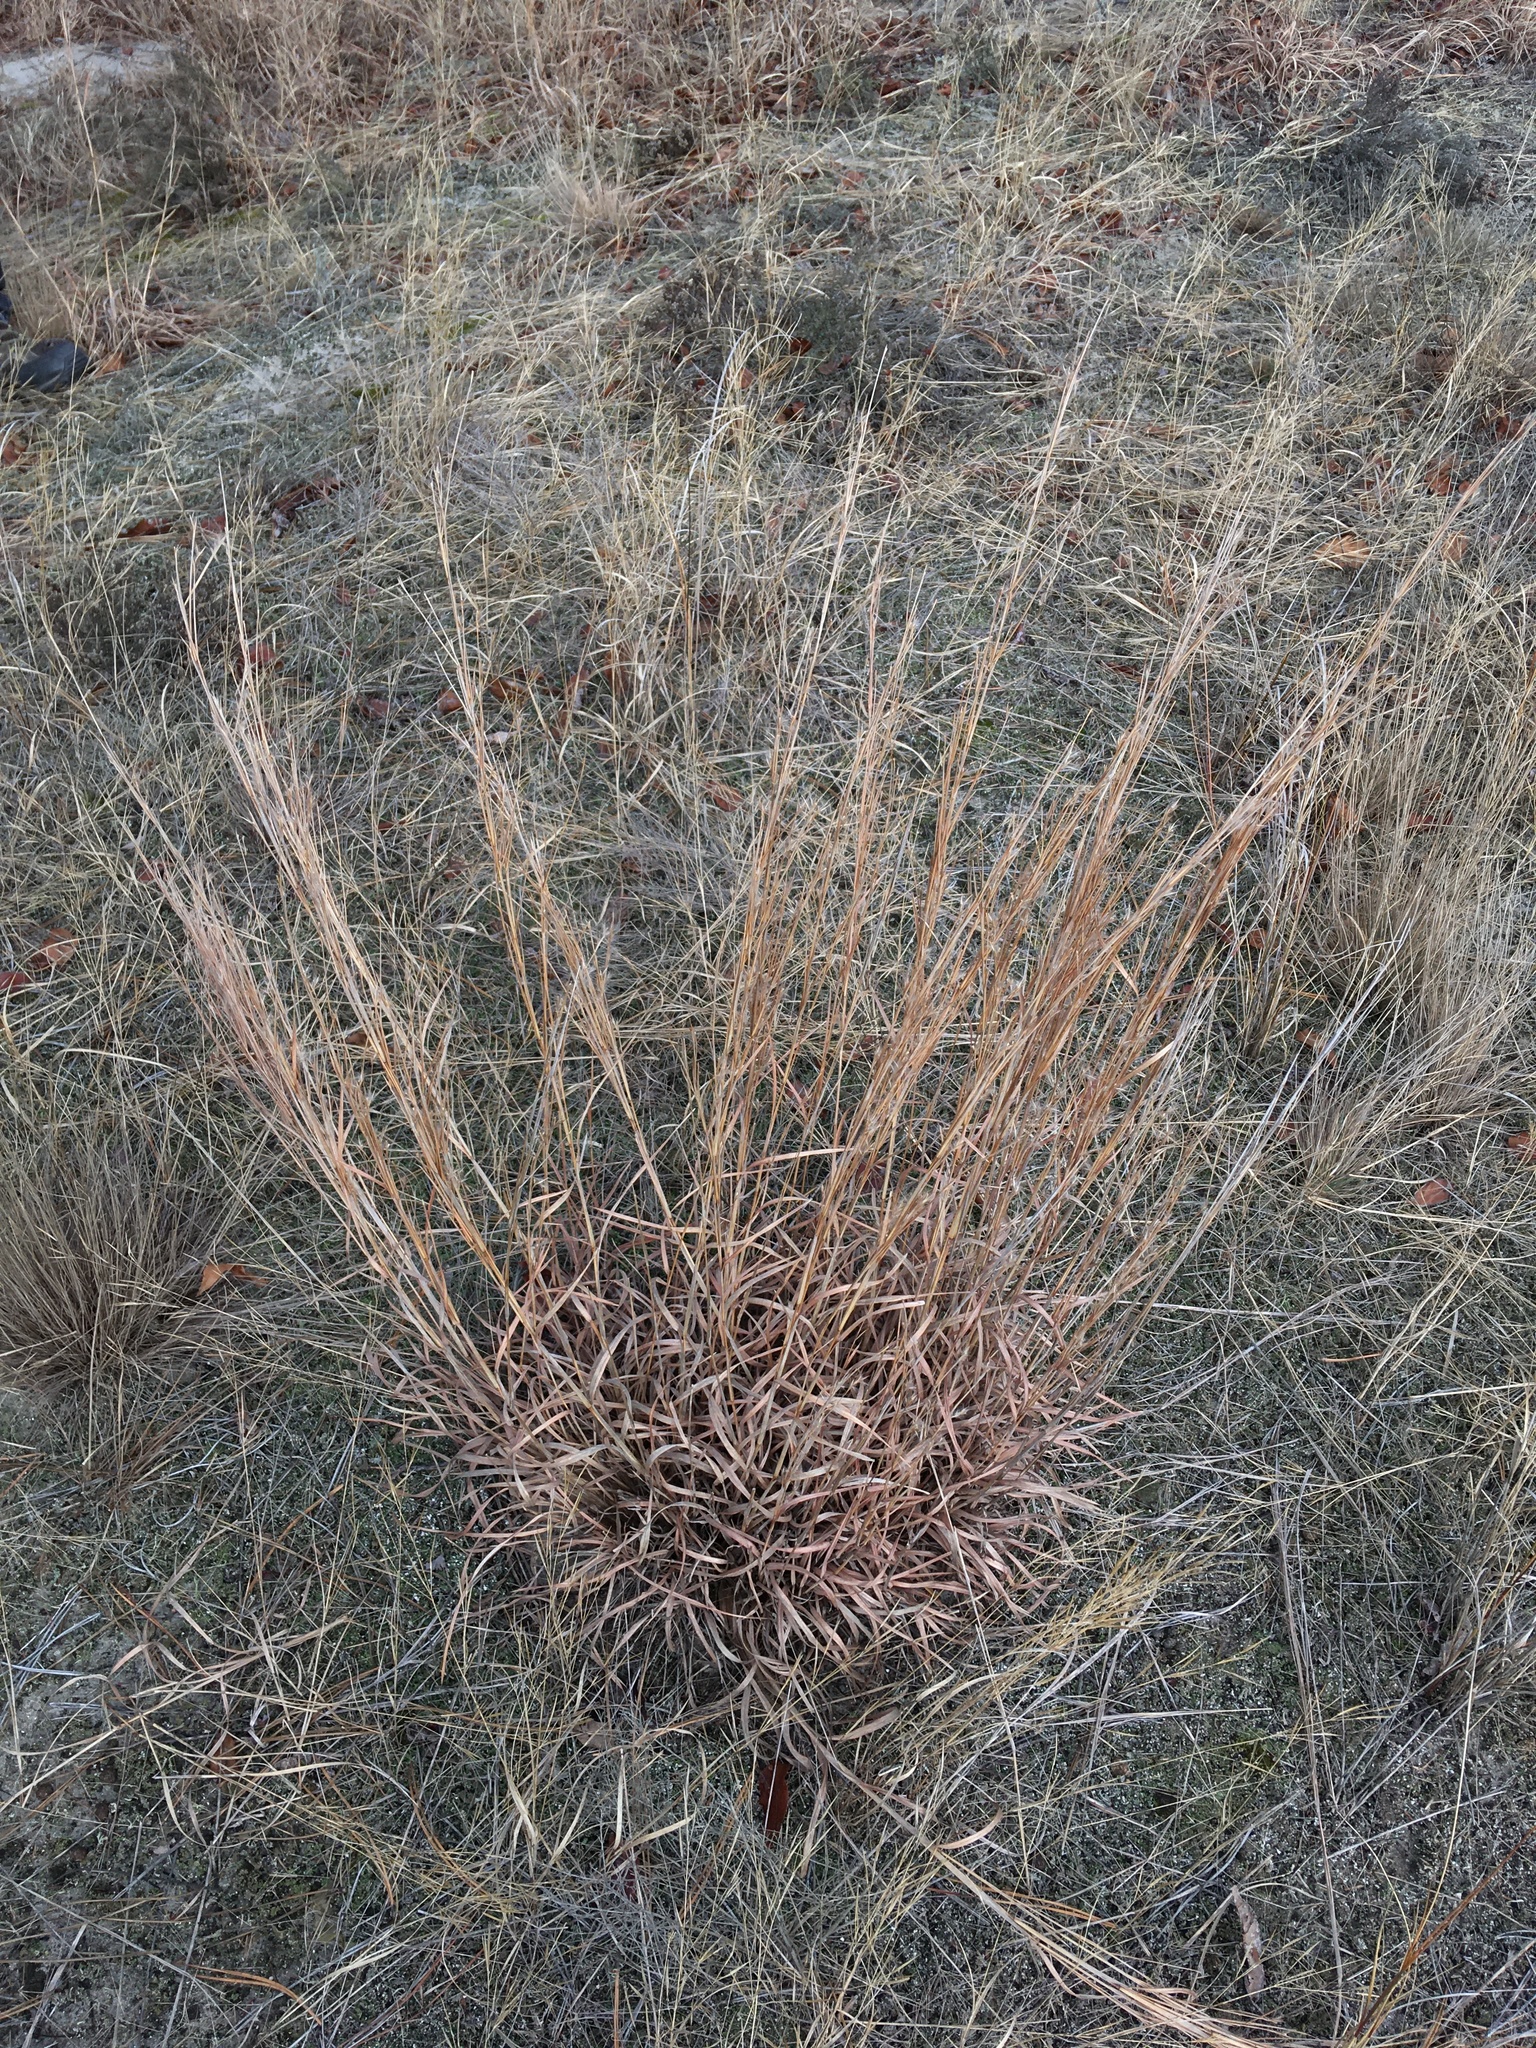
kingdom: Plantae
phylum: Tracheophyta
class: Liliopsida
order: Poales
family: Poaceae
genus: Schizachyrium
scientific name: Schizachyrium scoparium
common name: Little bluestem
